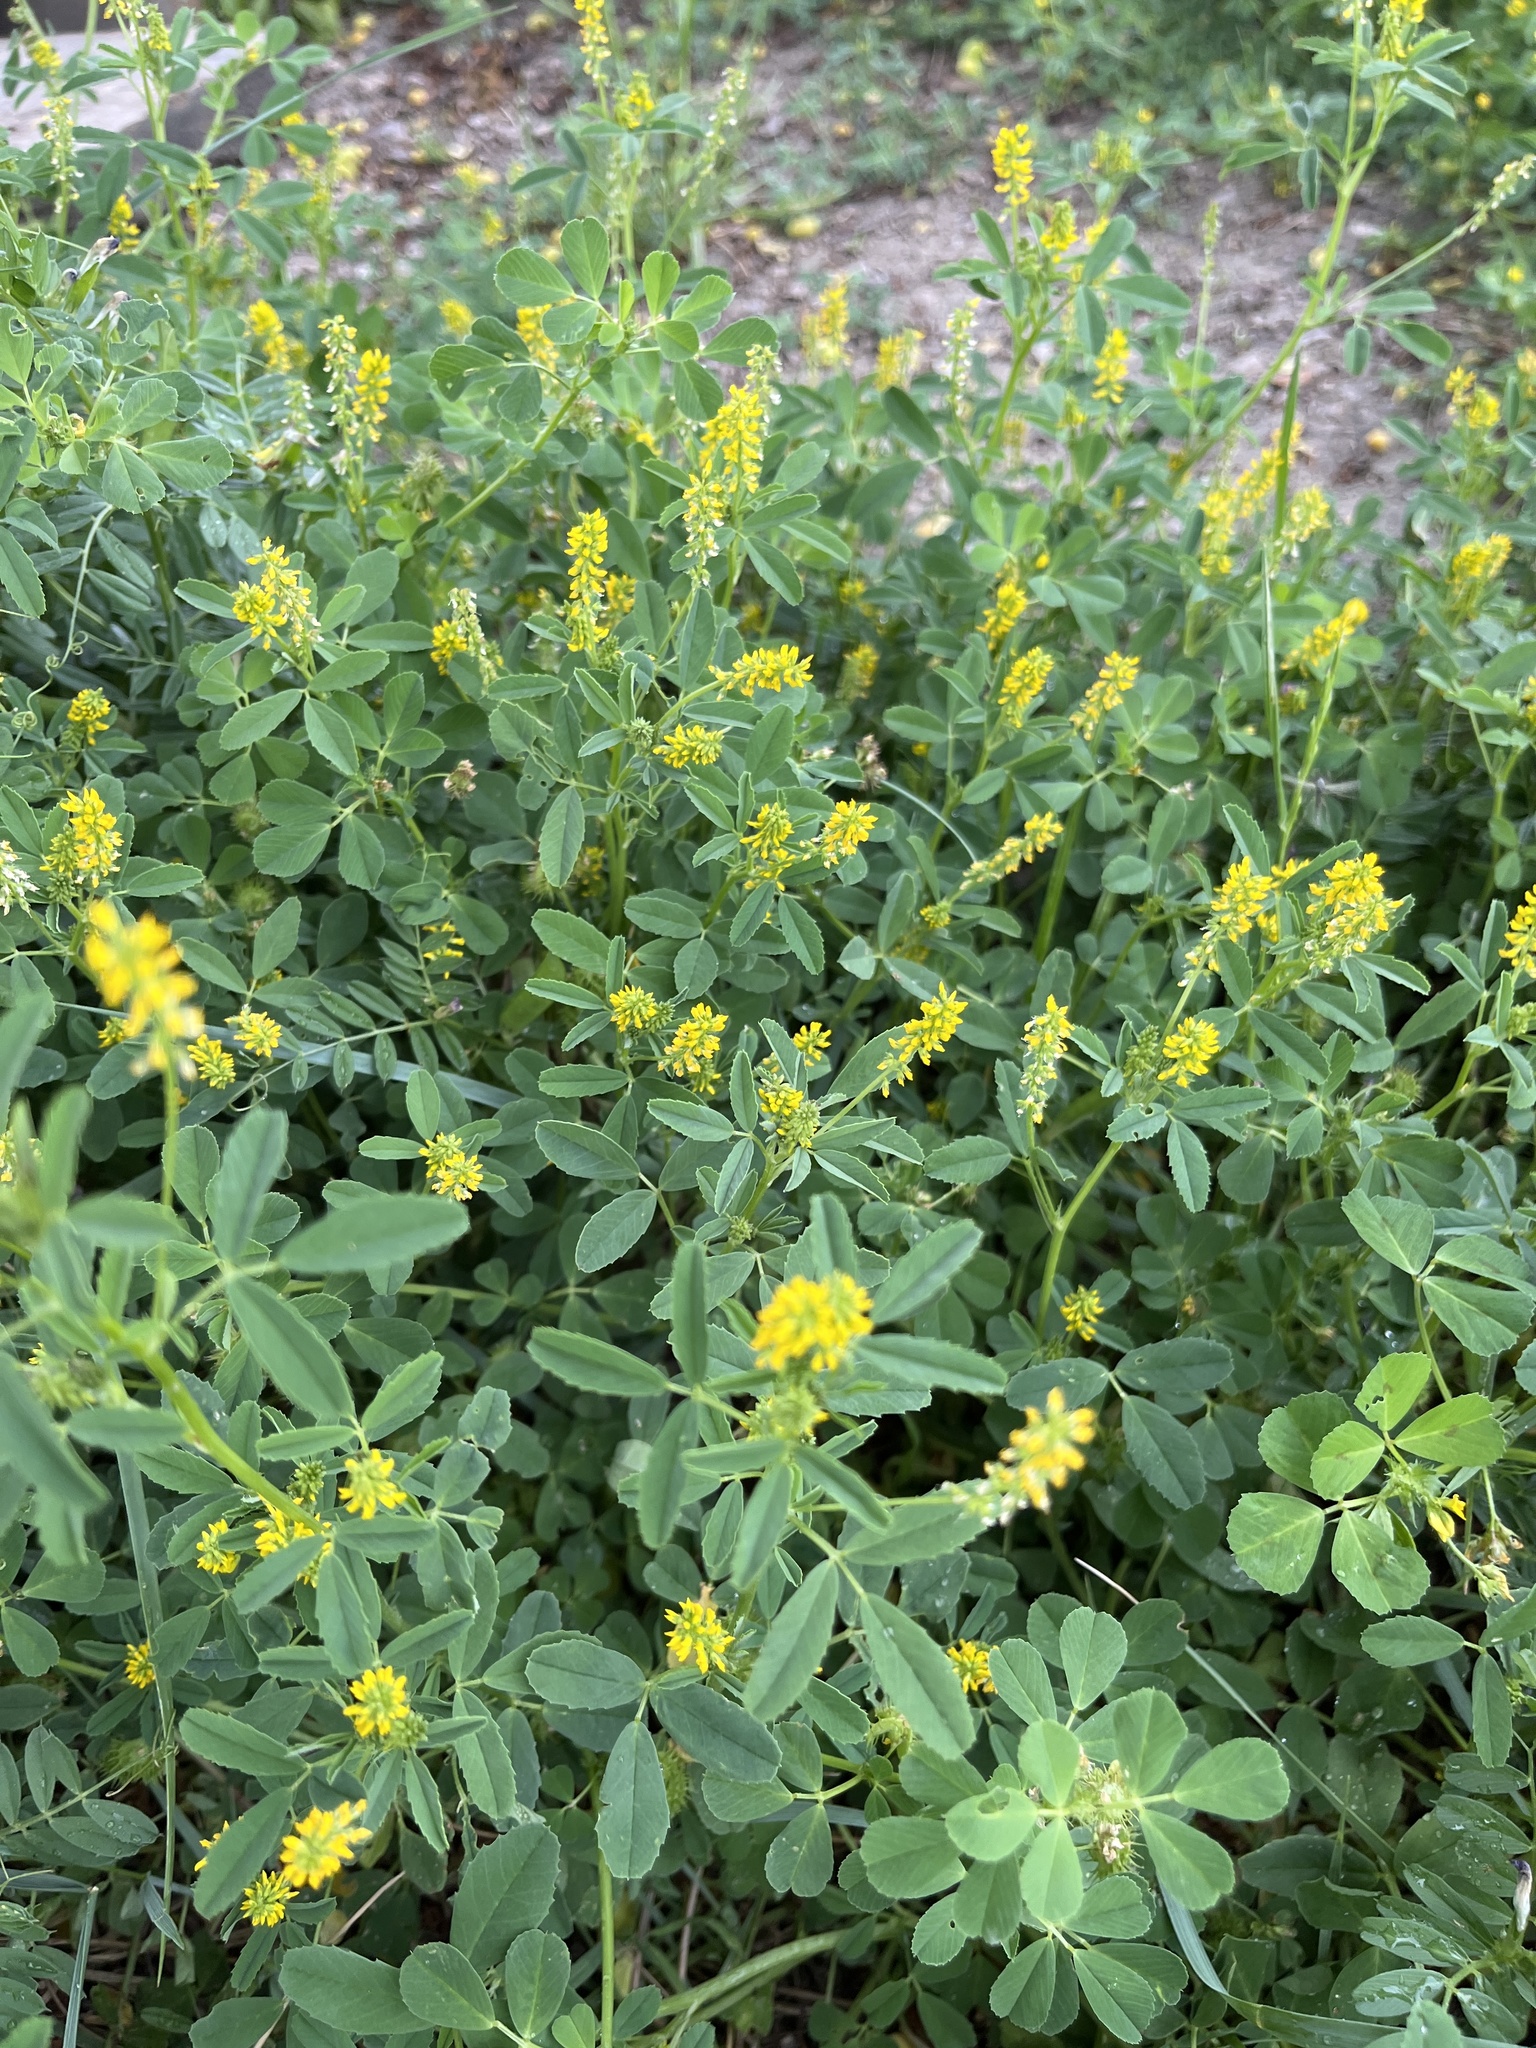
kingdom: Plantae
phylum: Tracheophyta
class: Magnoliopsida
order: Fabales
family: Fabaceae
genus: Melilotus
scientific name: Melilotus indicus
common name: Small melilot
